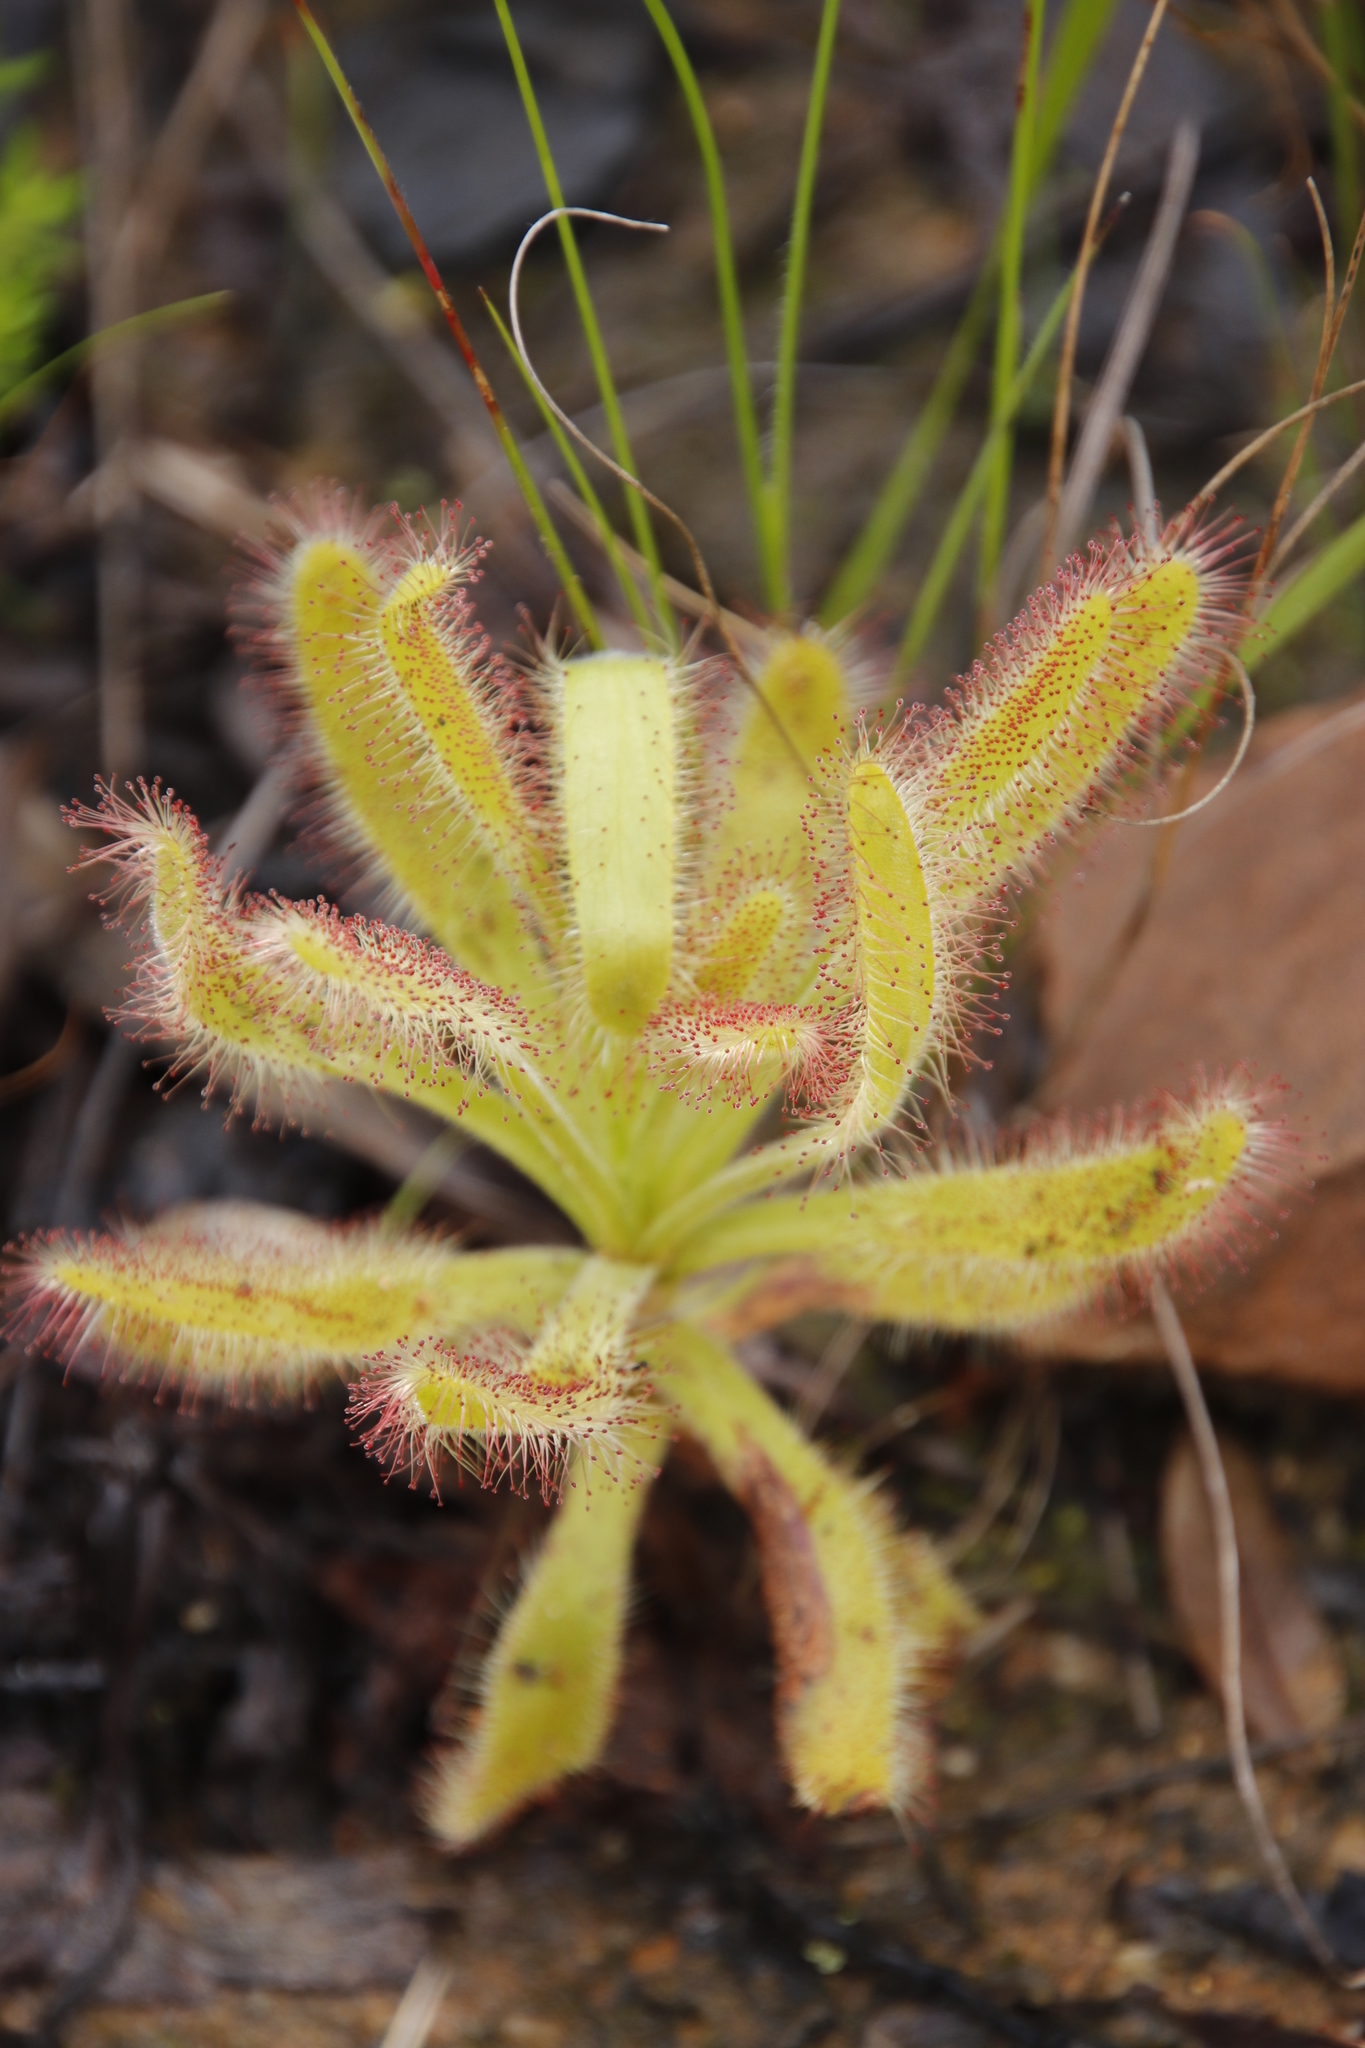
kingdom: Plantae
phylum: Tracheophyta
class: Magnoliopsida
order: Caryophyllales
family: Droseraceae
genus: Drosera
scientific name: Drosera hilaris
